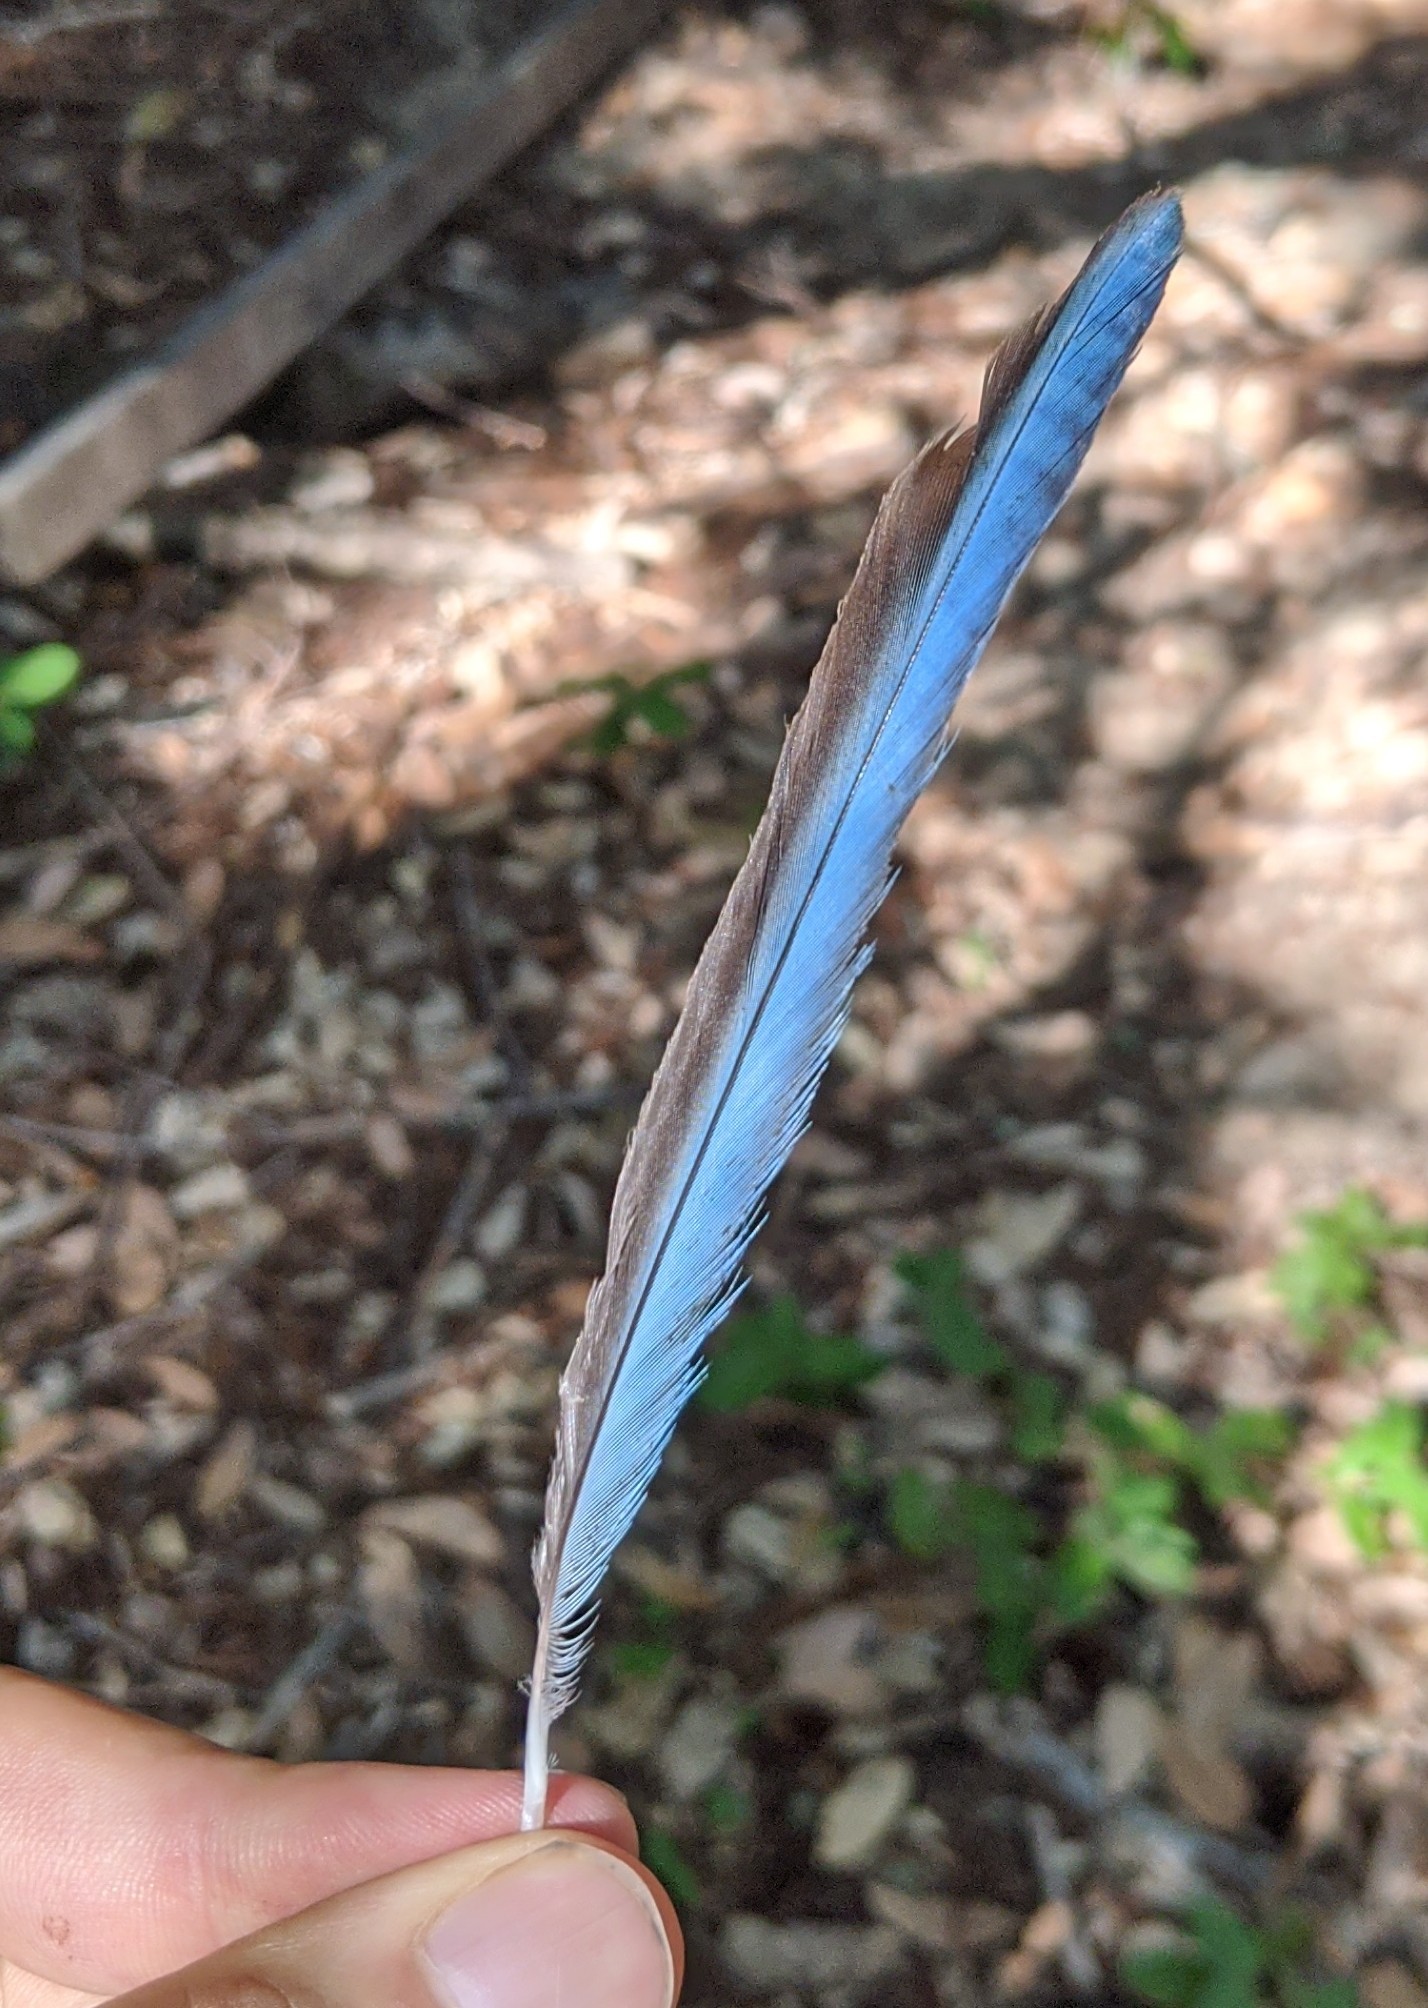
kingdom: Animalia
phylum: Chordata
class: Aves
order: Passeriformes
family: Corvidae
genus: Cyanocitta
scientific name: Cyanocitta stelleri
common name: Steller's jay
